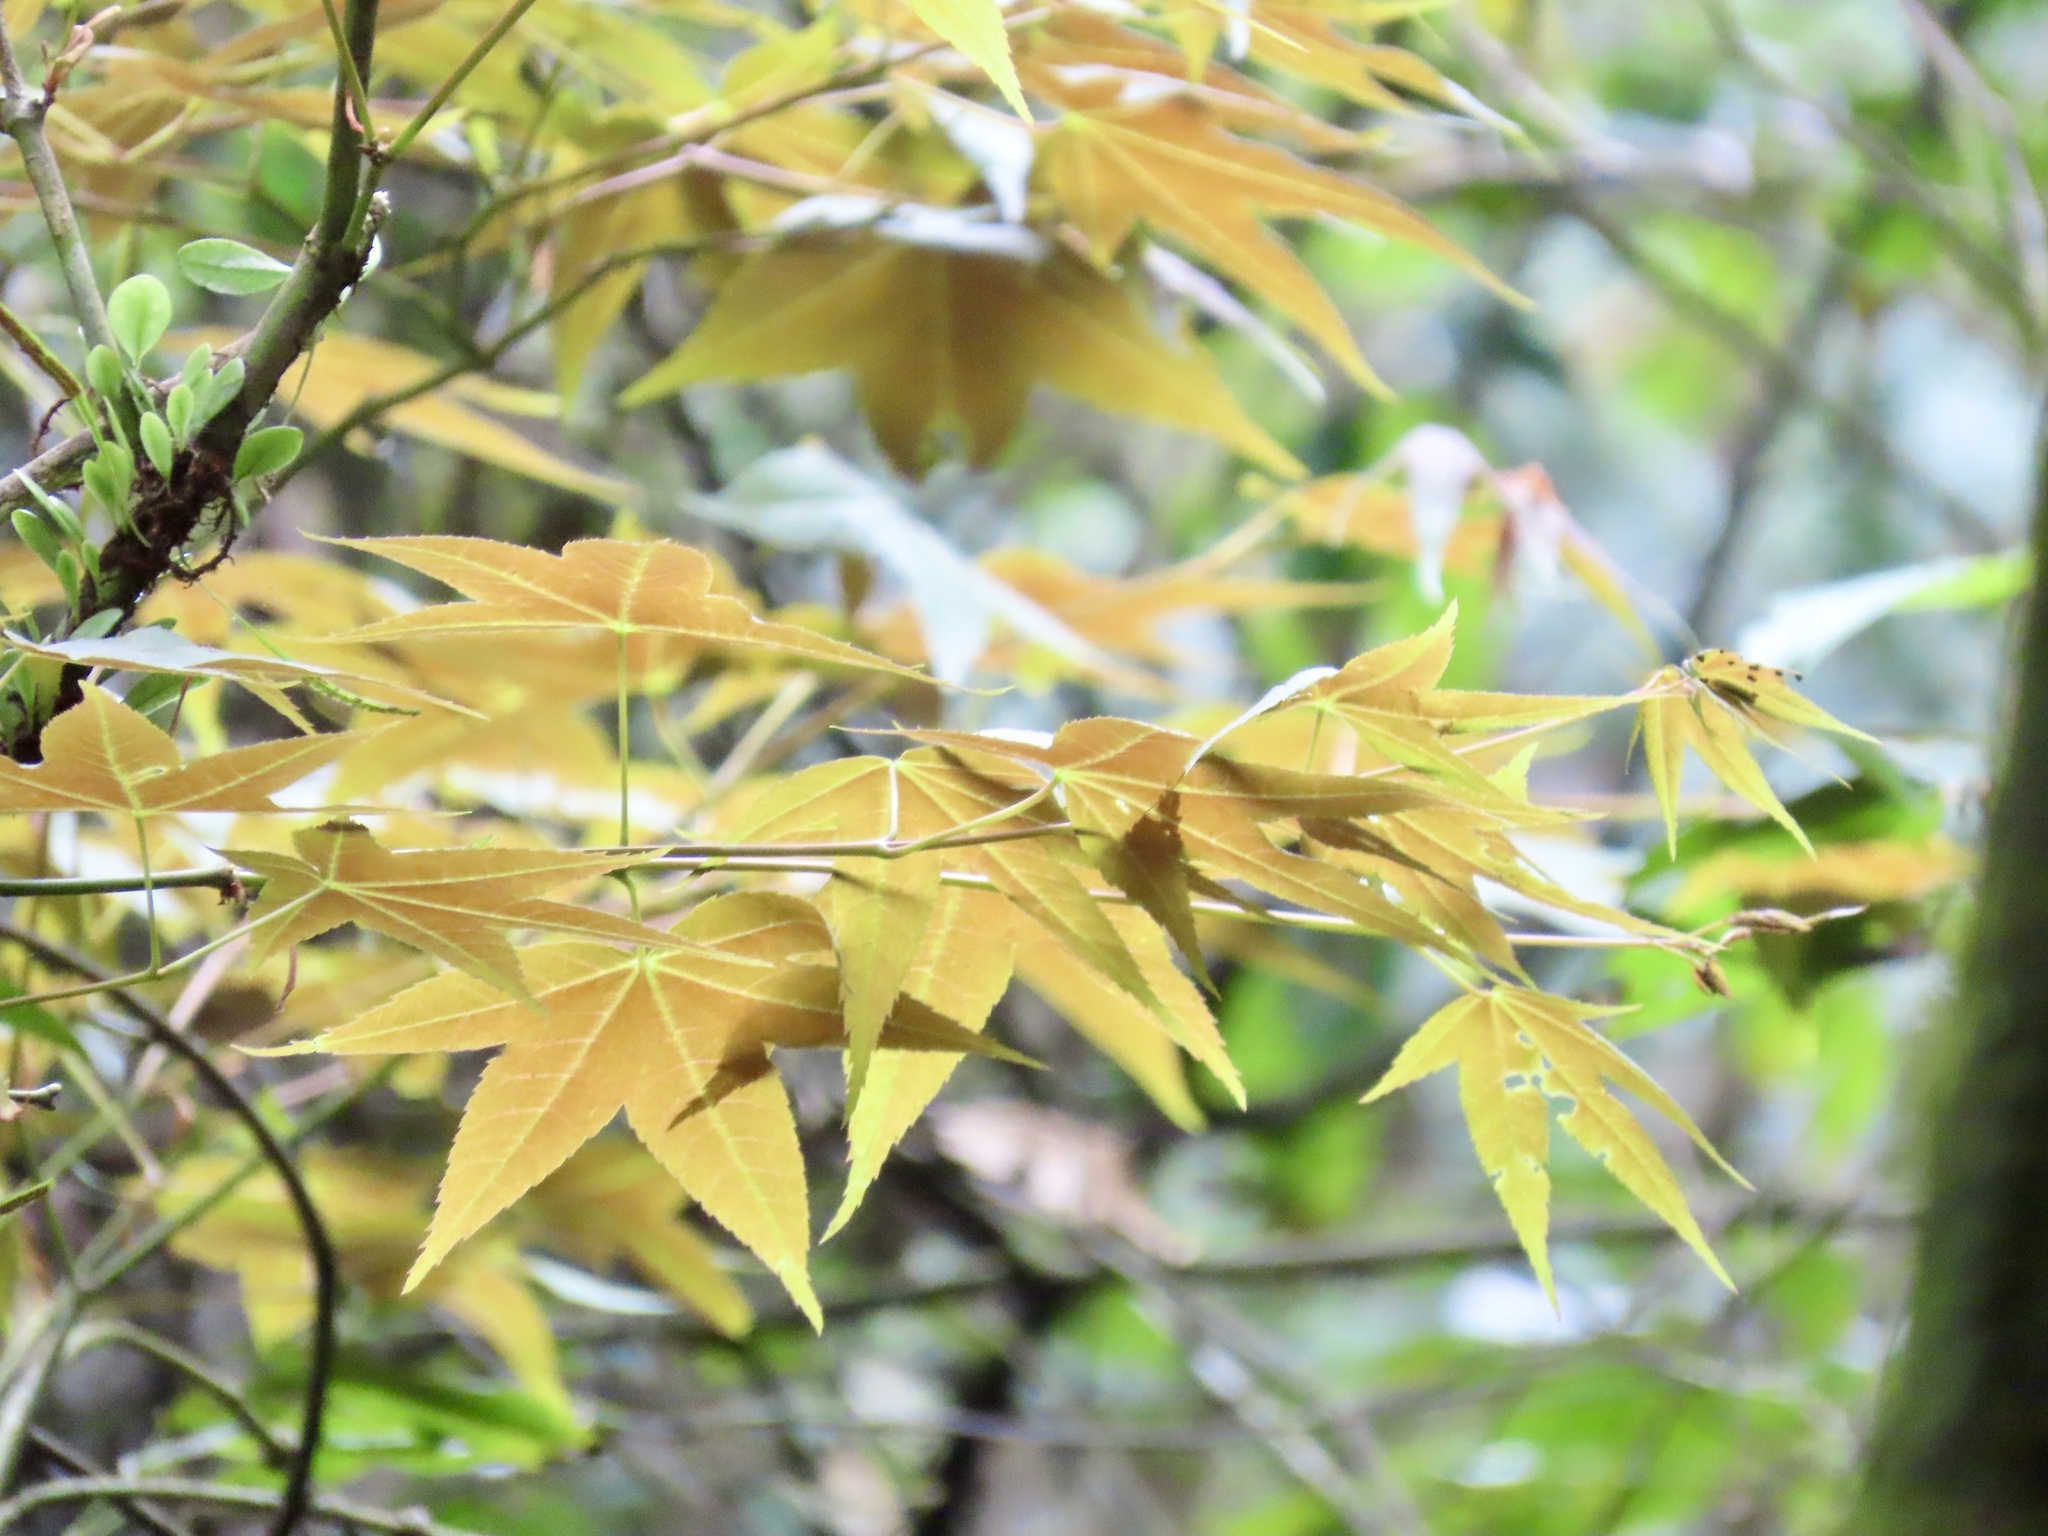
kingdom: Plantae
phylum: Tracheophyta
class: Magnoliopsida
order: Sapindales
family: Sapindaceae
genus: Acer
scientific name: Acer serrulatum
